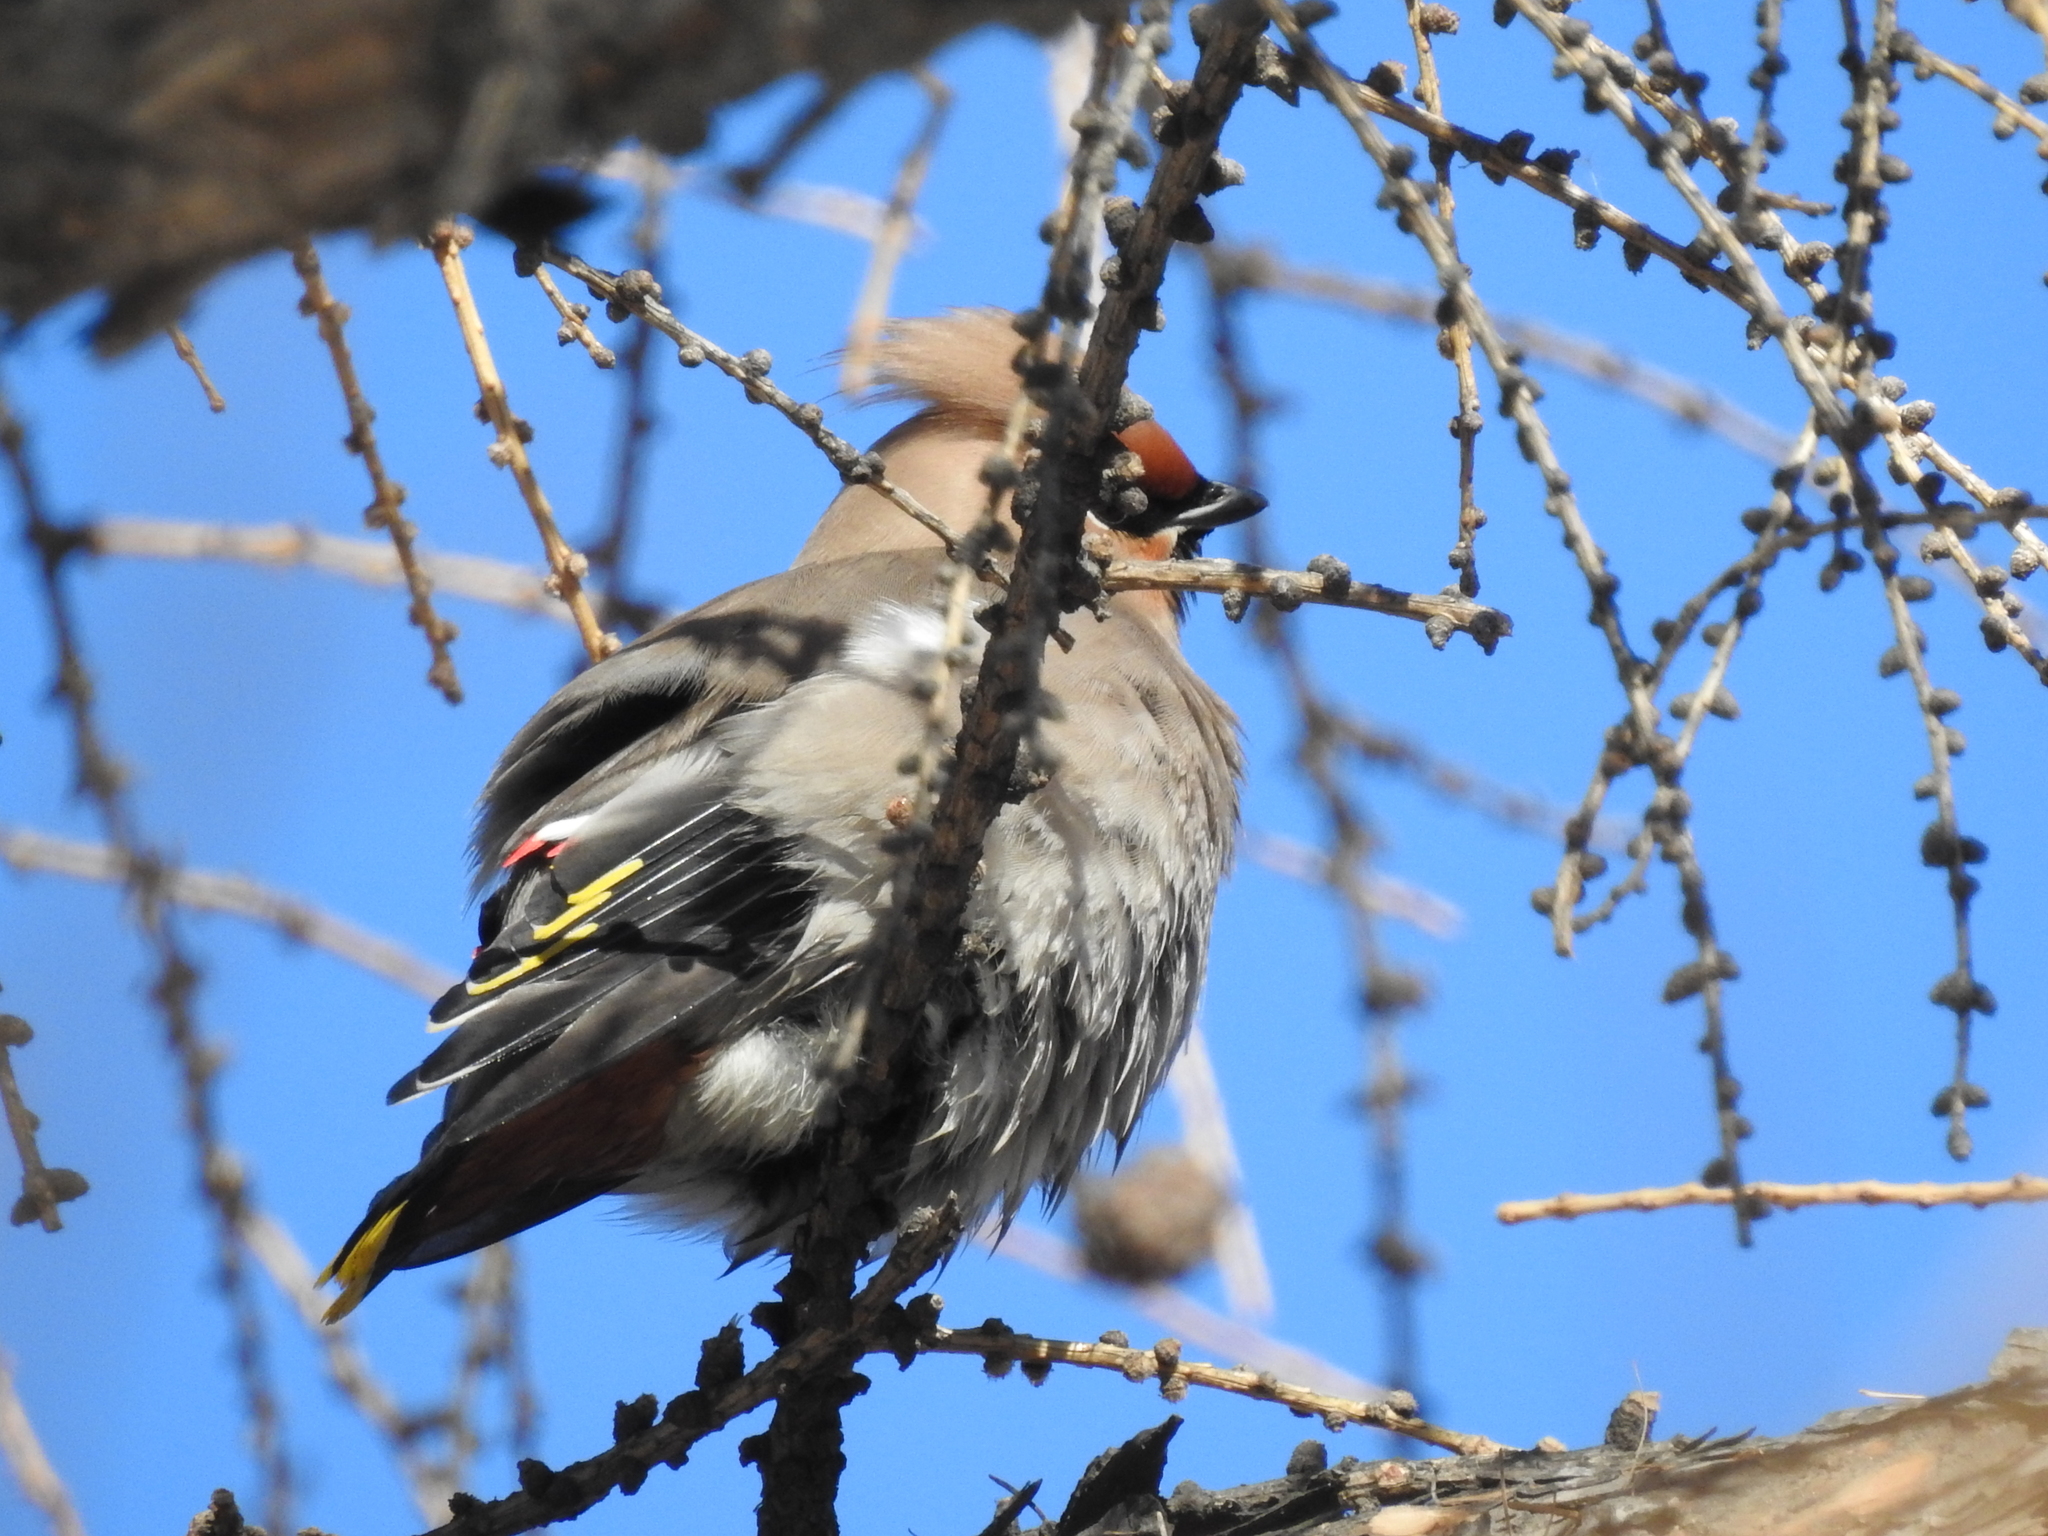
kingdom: Animalia
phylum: Chordata
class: Aves
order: Passeriformes
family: Bombycillidae
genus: Bombycilla
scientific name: Bombycilla garrulus
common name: Bohemian waxwing
